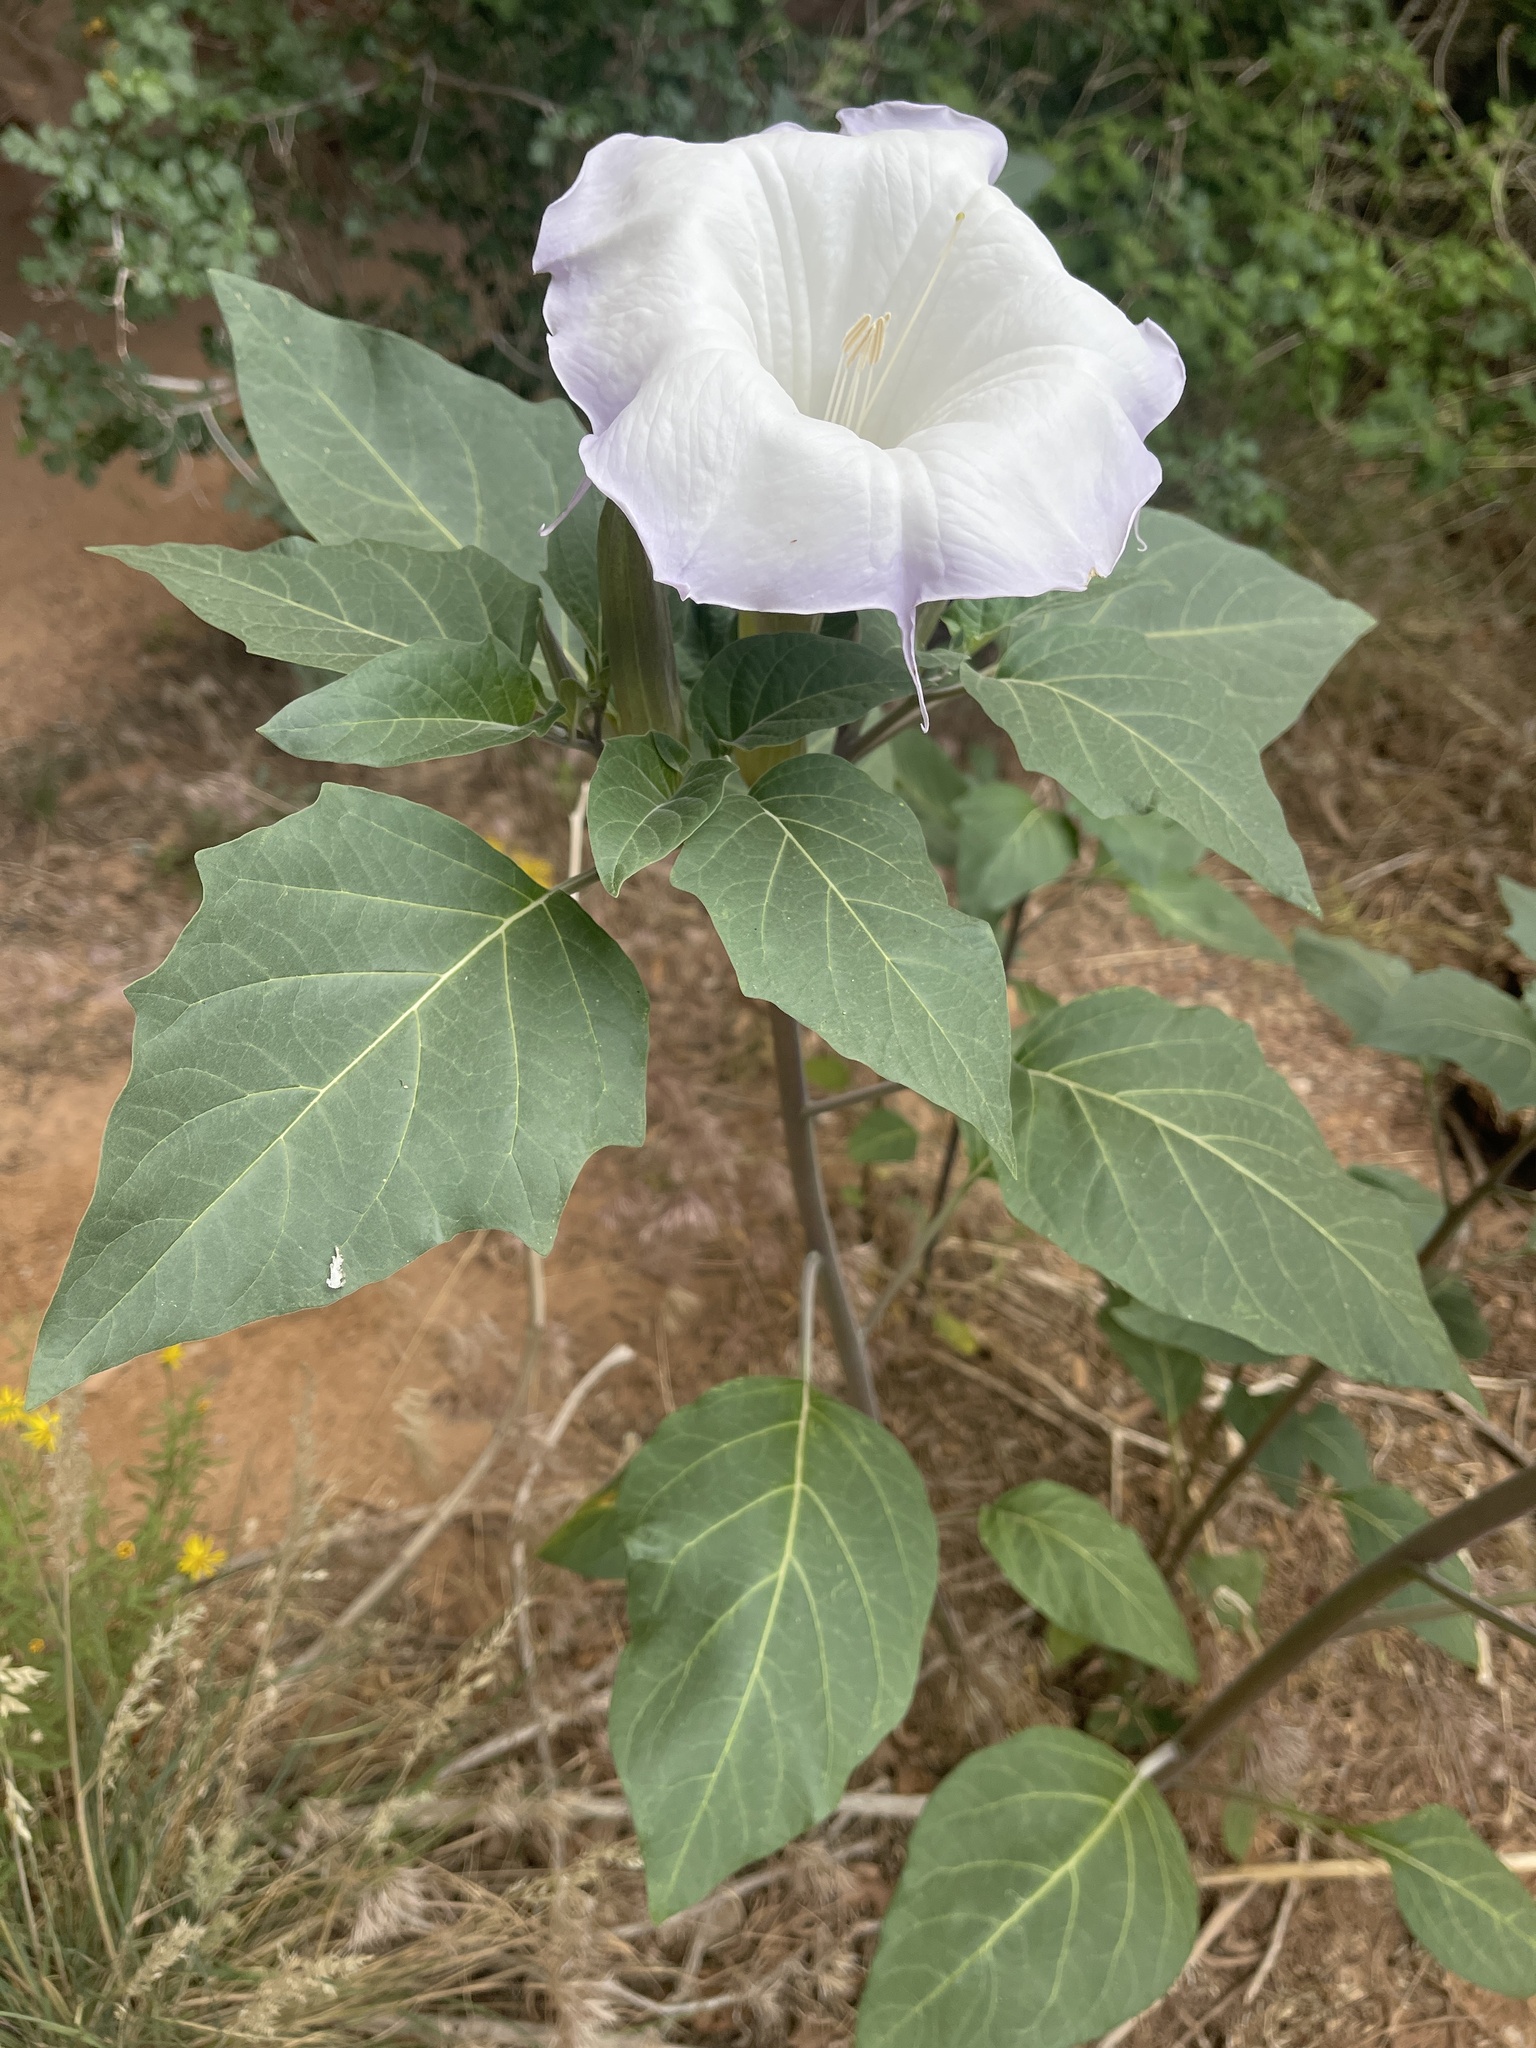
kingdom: Plantae
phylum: Tracheophyta
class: Magnoliopsida
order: Solanales
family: Solanaceae
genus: Datura
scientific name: Datura wrightii
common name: Sacred thorn-apple
